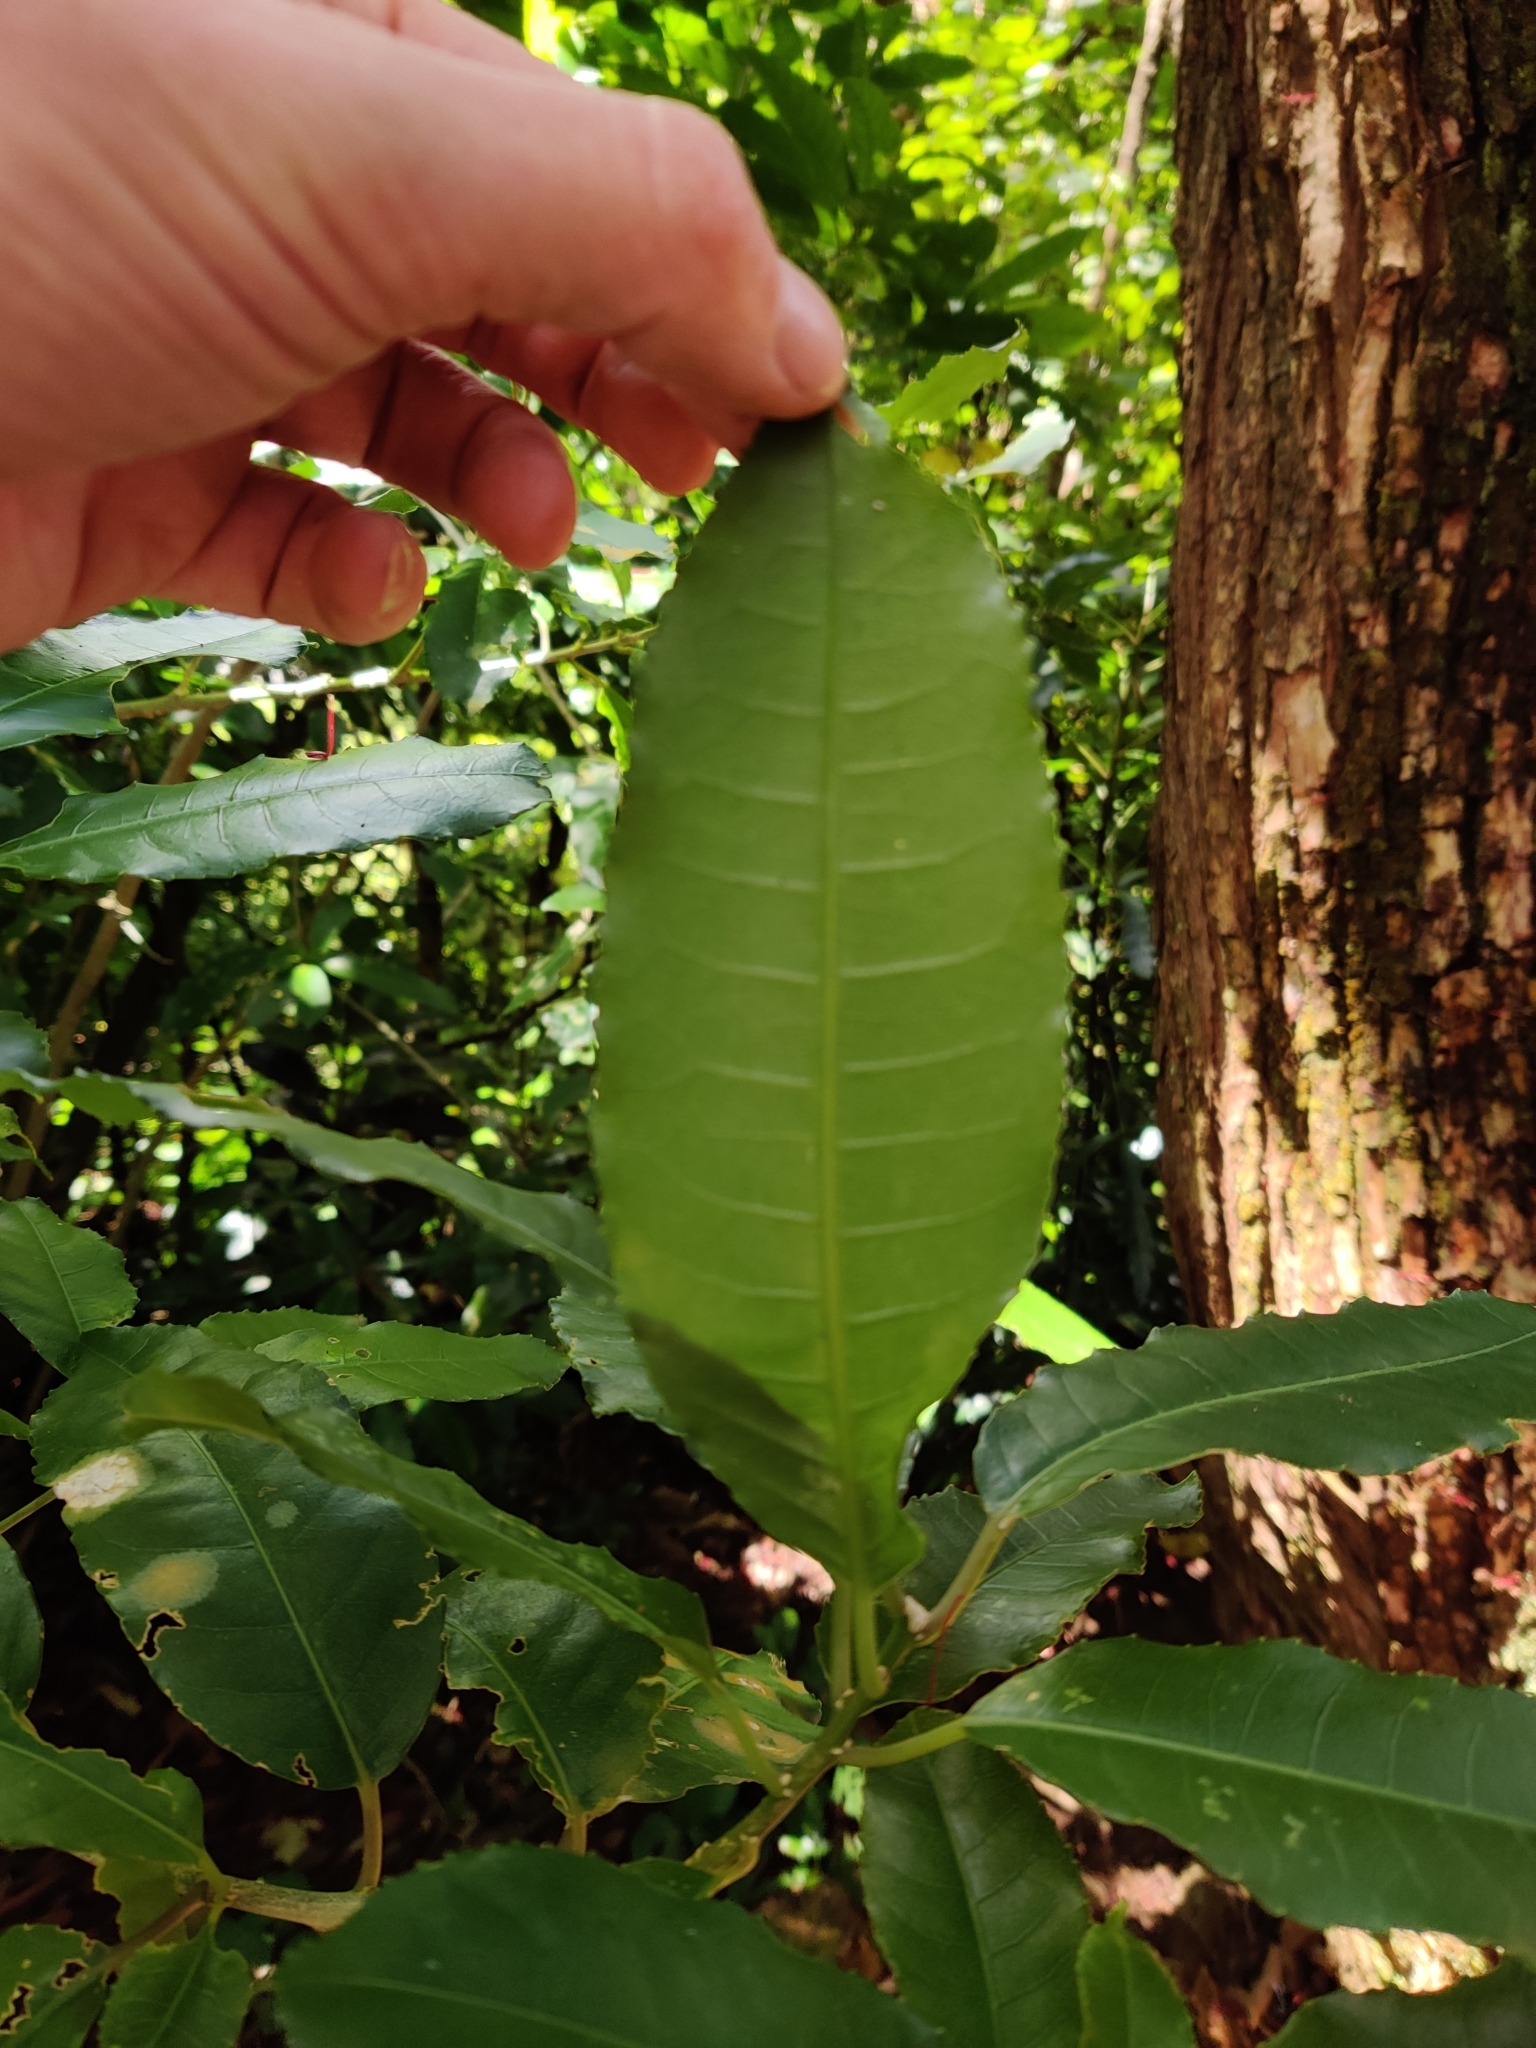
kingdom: Plantae
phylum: Tracheophyta
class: Magnoliopsida
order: Malpighiales
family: Violaceae
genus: Melicytus
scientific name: Melicytus ramiflorus
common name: Mahoe
